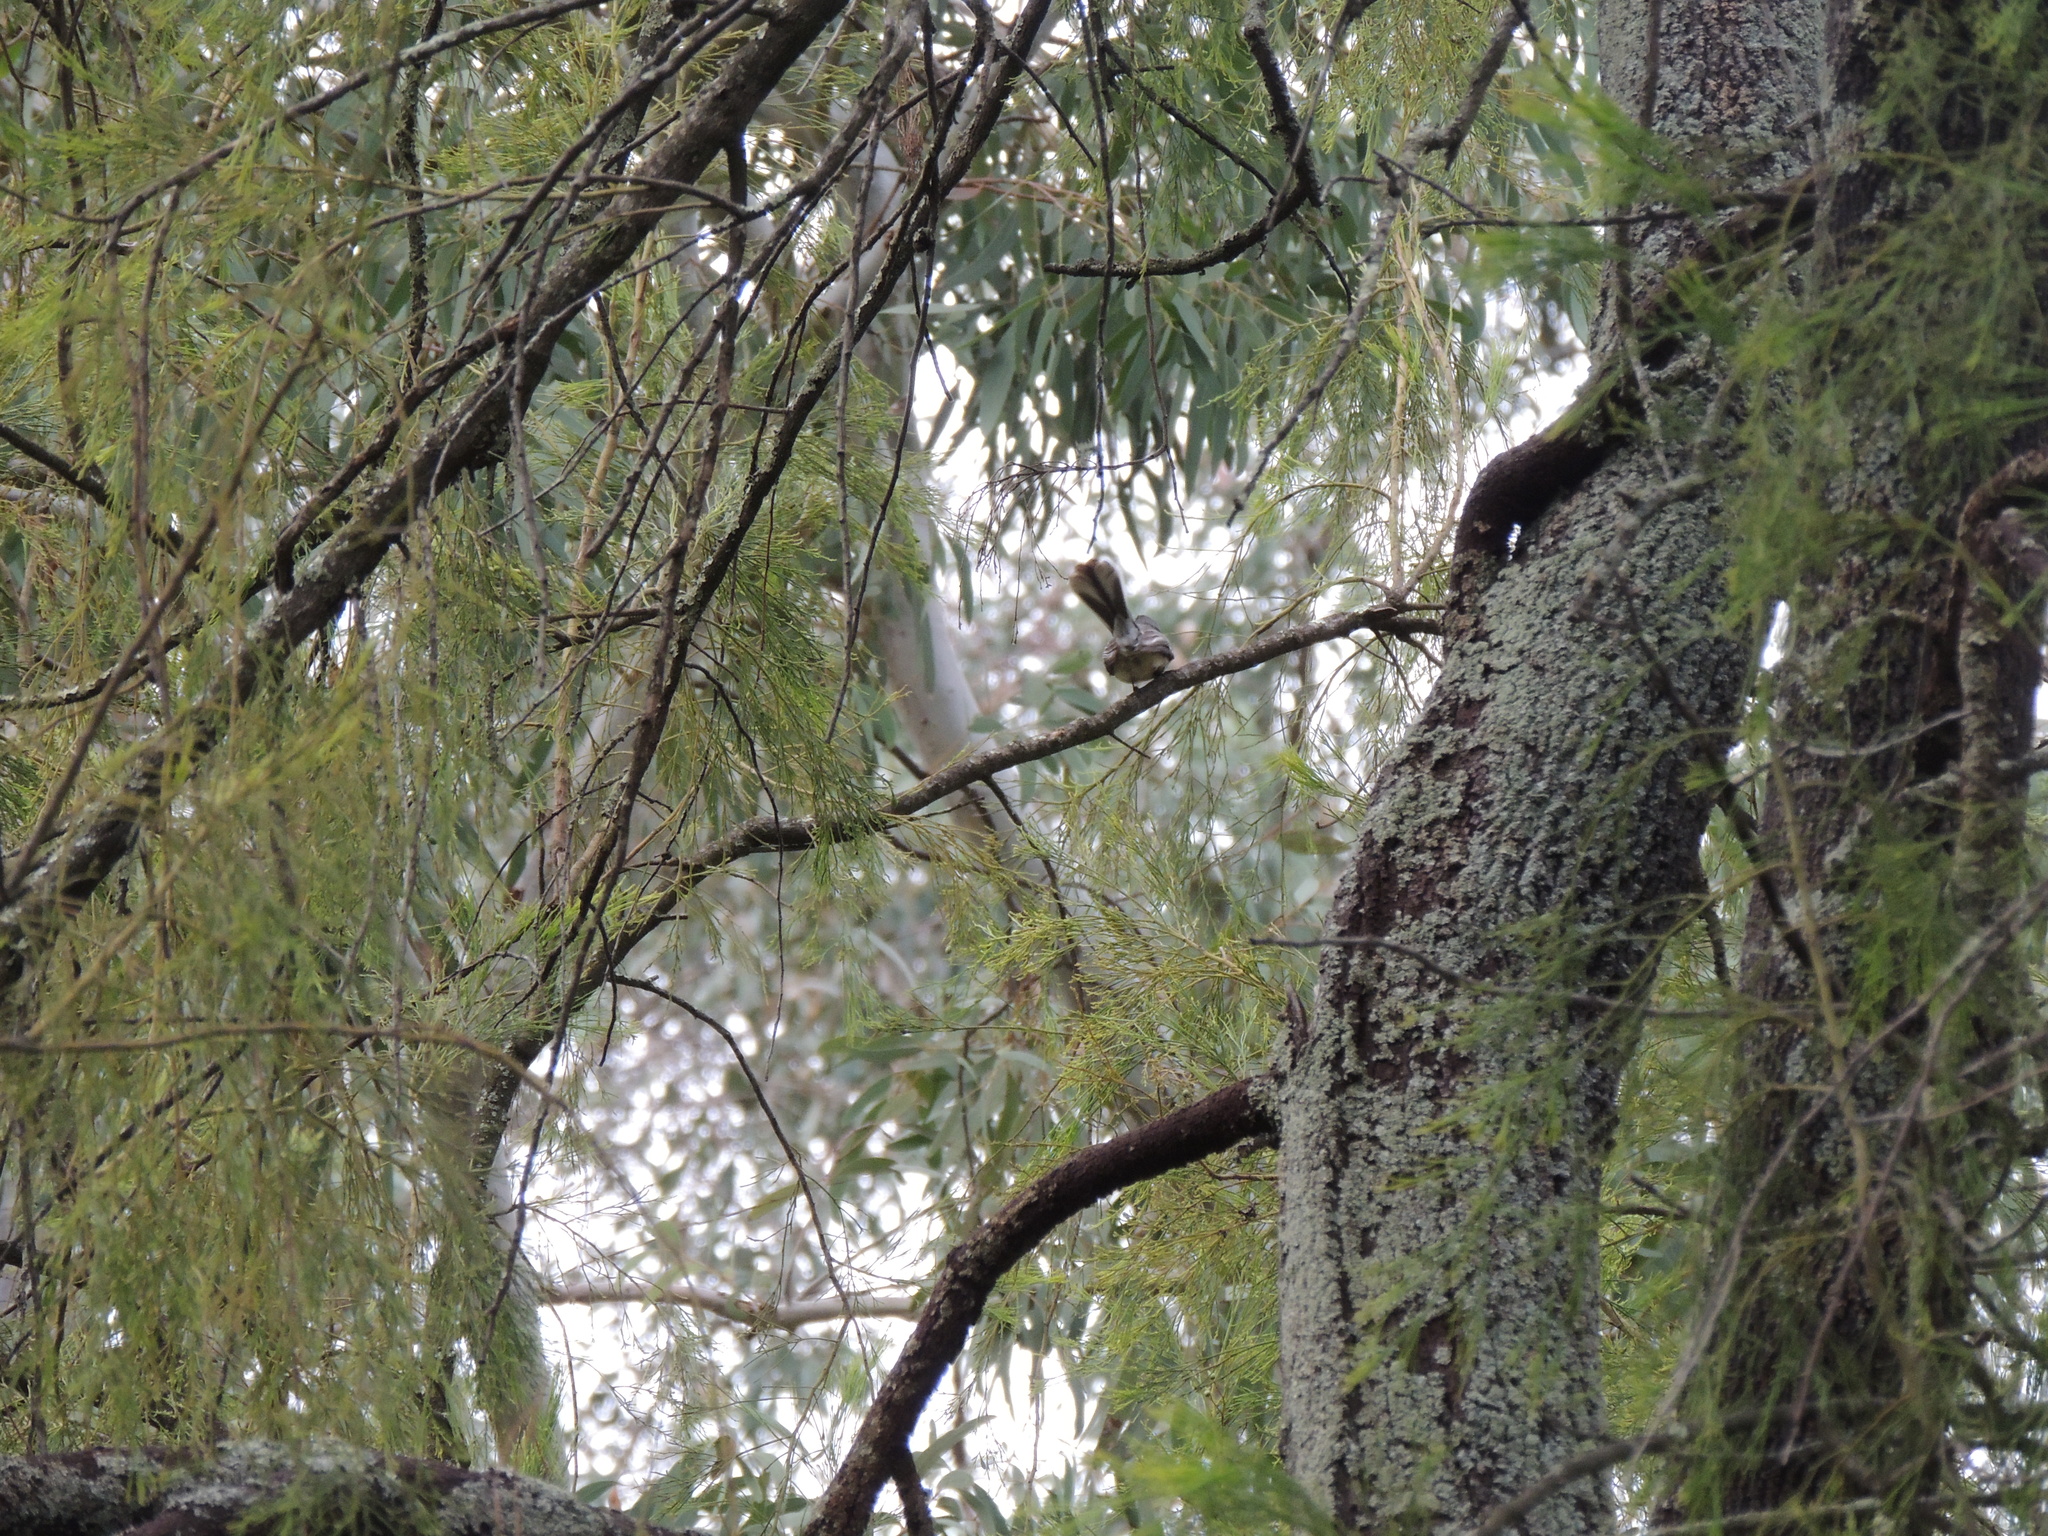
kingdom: Animalia
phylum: Chordata
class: Aves
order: Passeriformes
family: Rhipiduridae
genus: Rhipidura
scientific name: Rhipidura albiscapa
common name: Grey fantail
